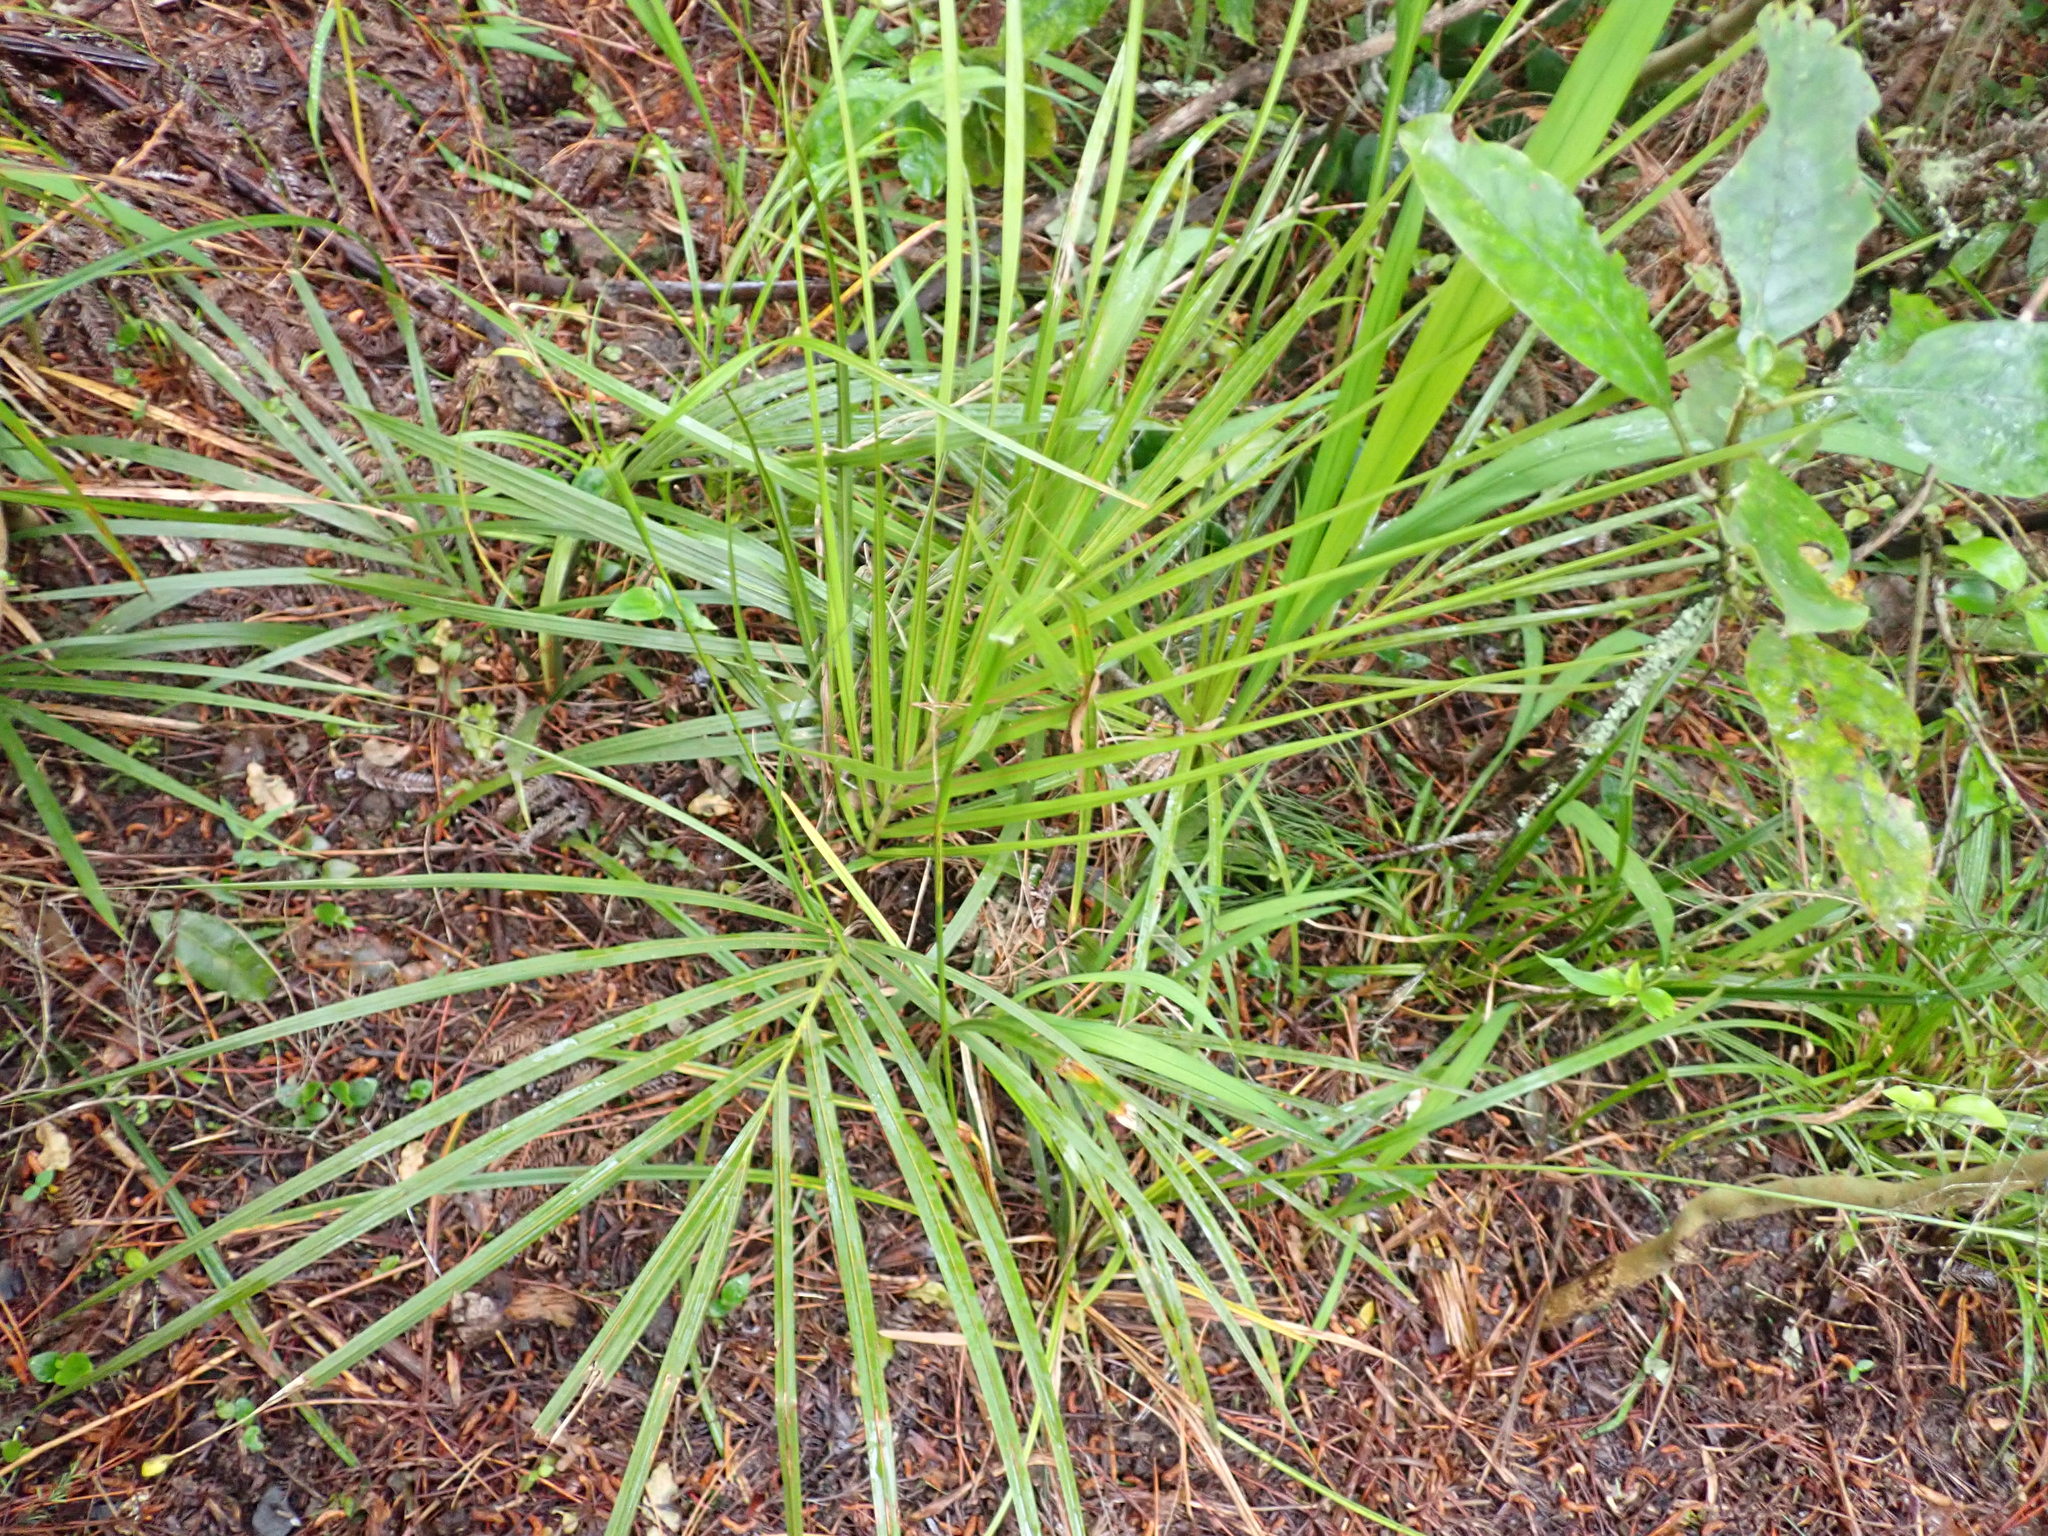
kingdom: Plantae
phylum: Tracheophyta
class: Liliopsida
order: Arecales
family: Arecaceae
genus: Rhopalostylis
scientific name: Rhopalostylis sapida
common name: Feather-duster palm
